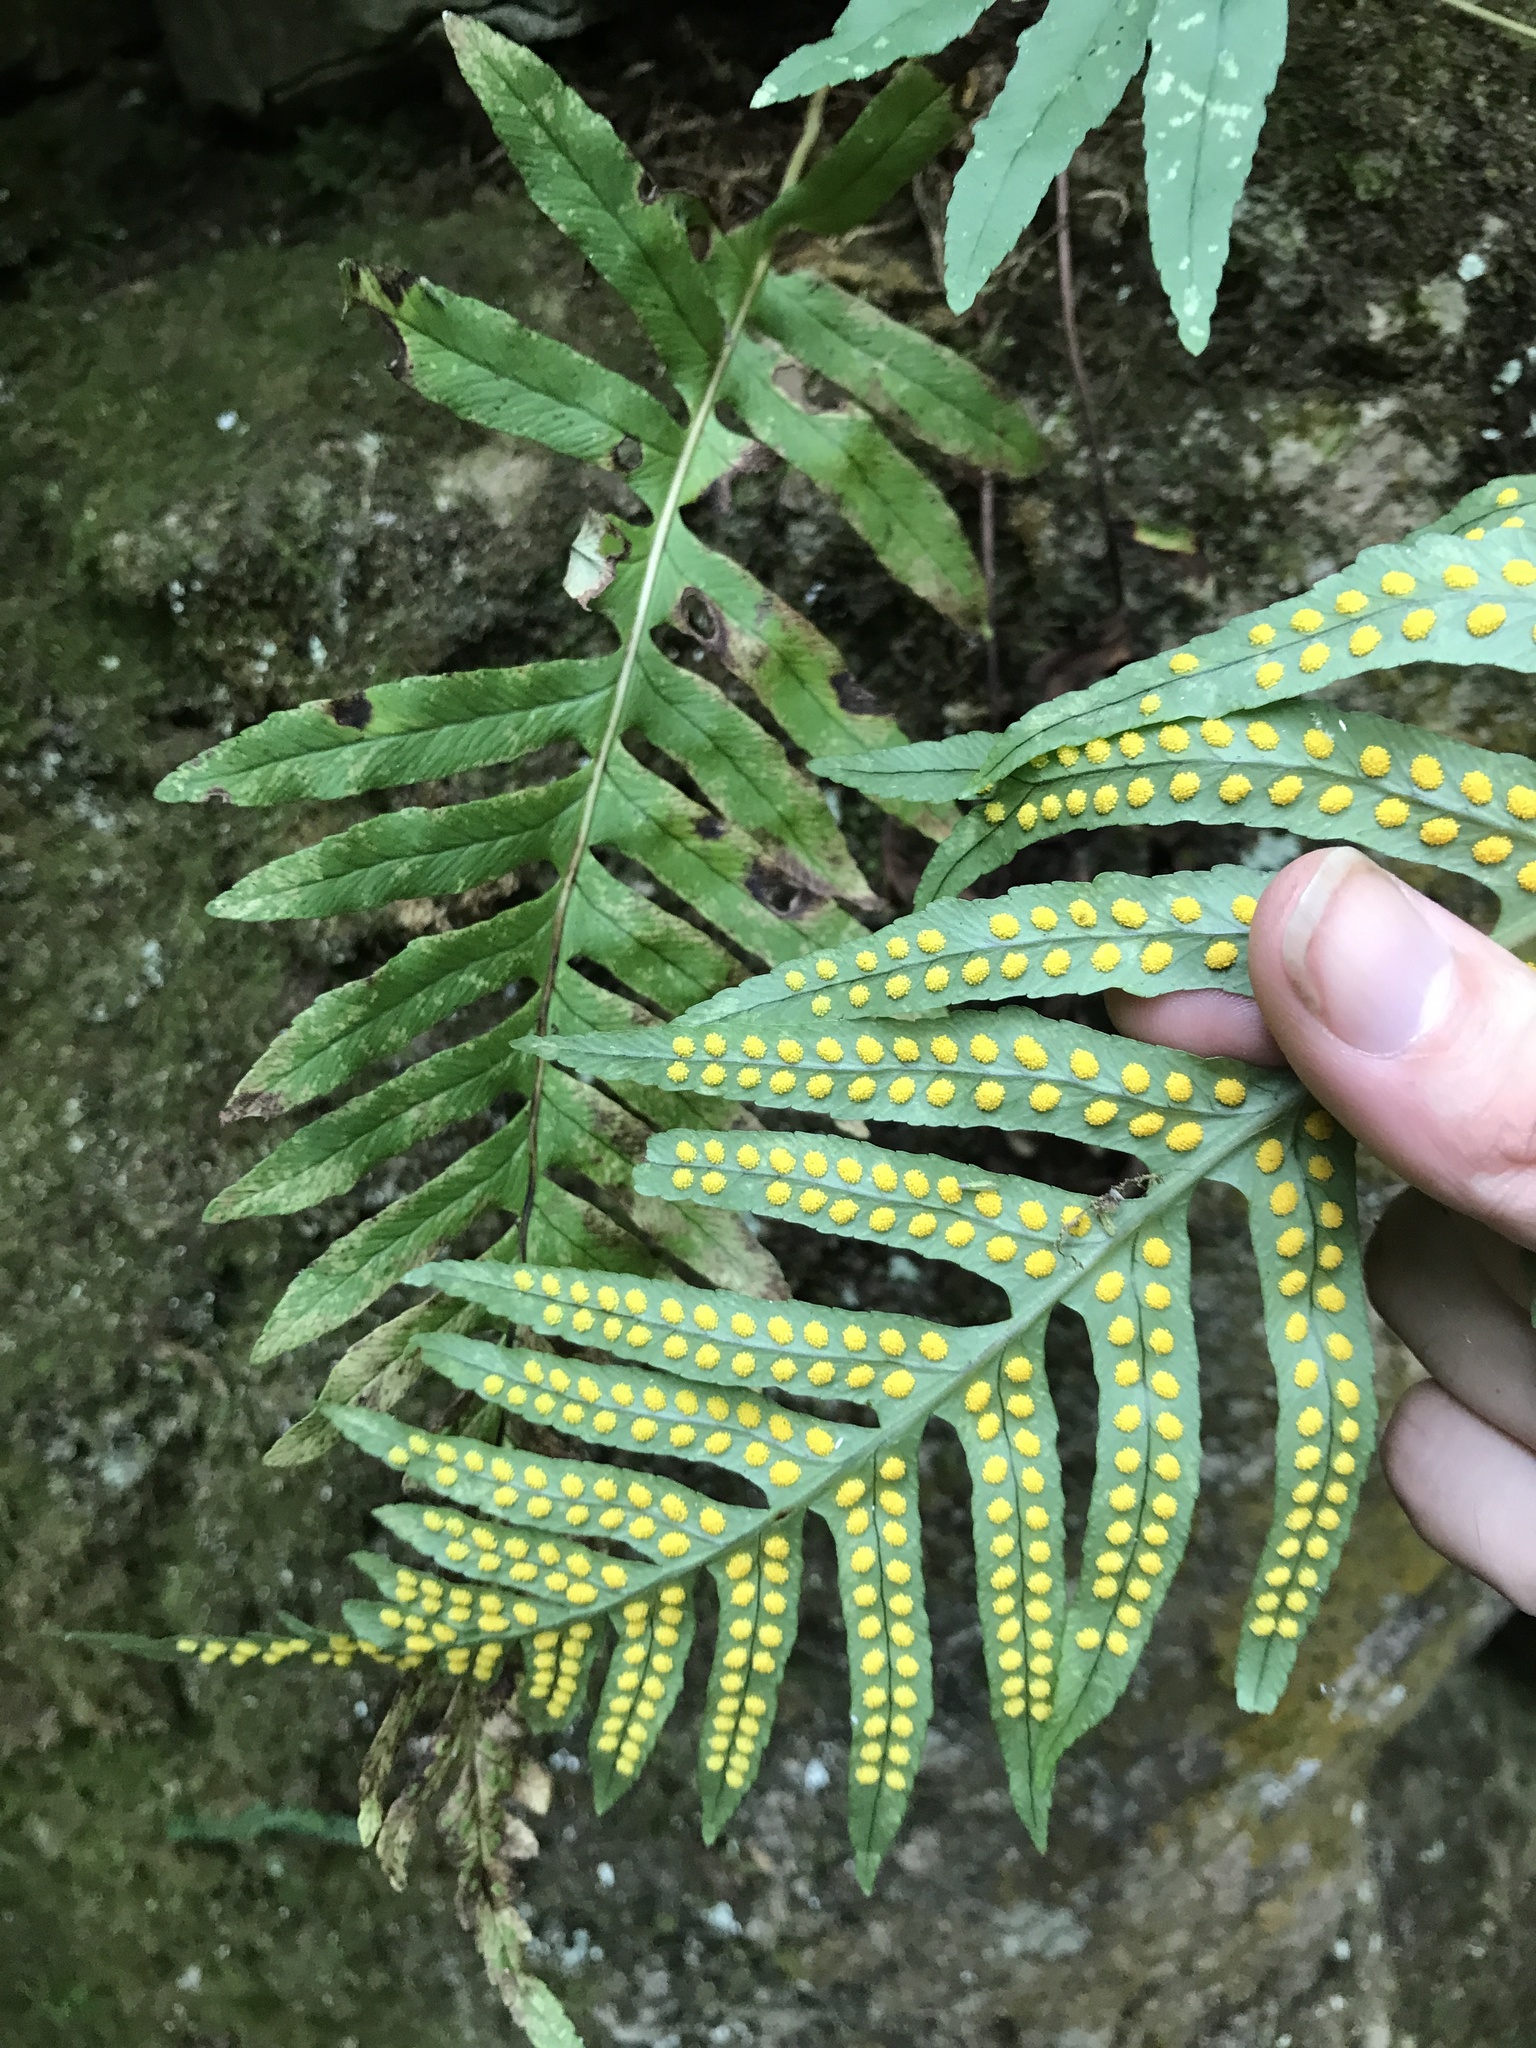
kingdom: Plantae
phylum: Tracheophyta
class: Polypodiopsida
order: Polypodiales
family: Polypodiaceae
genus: Polypodium
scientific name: Polypodium vulgare
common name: Common polypody
